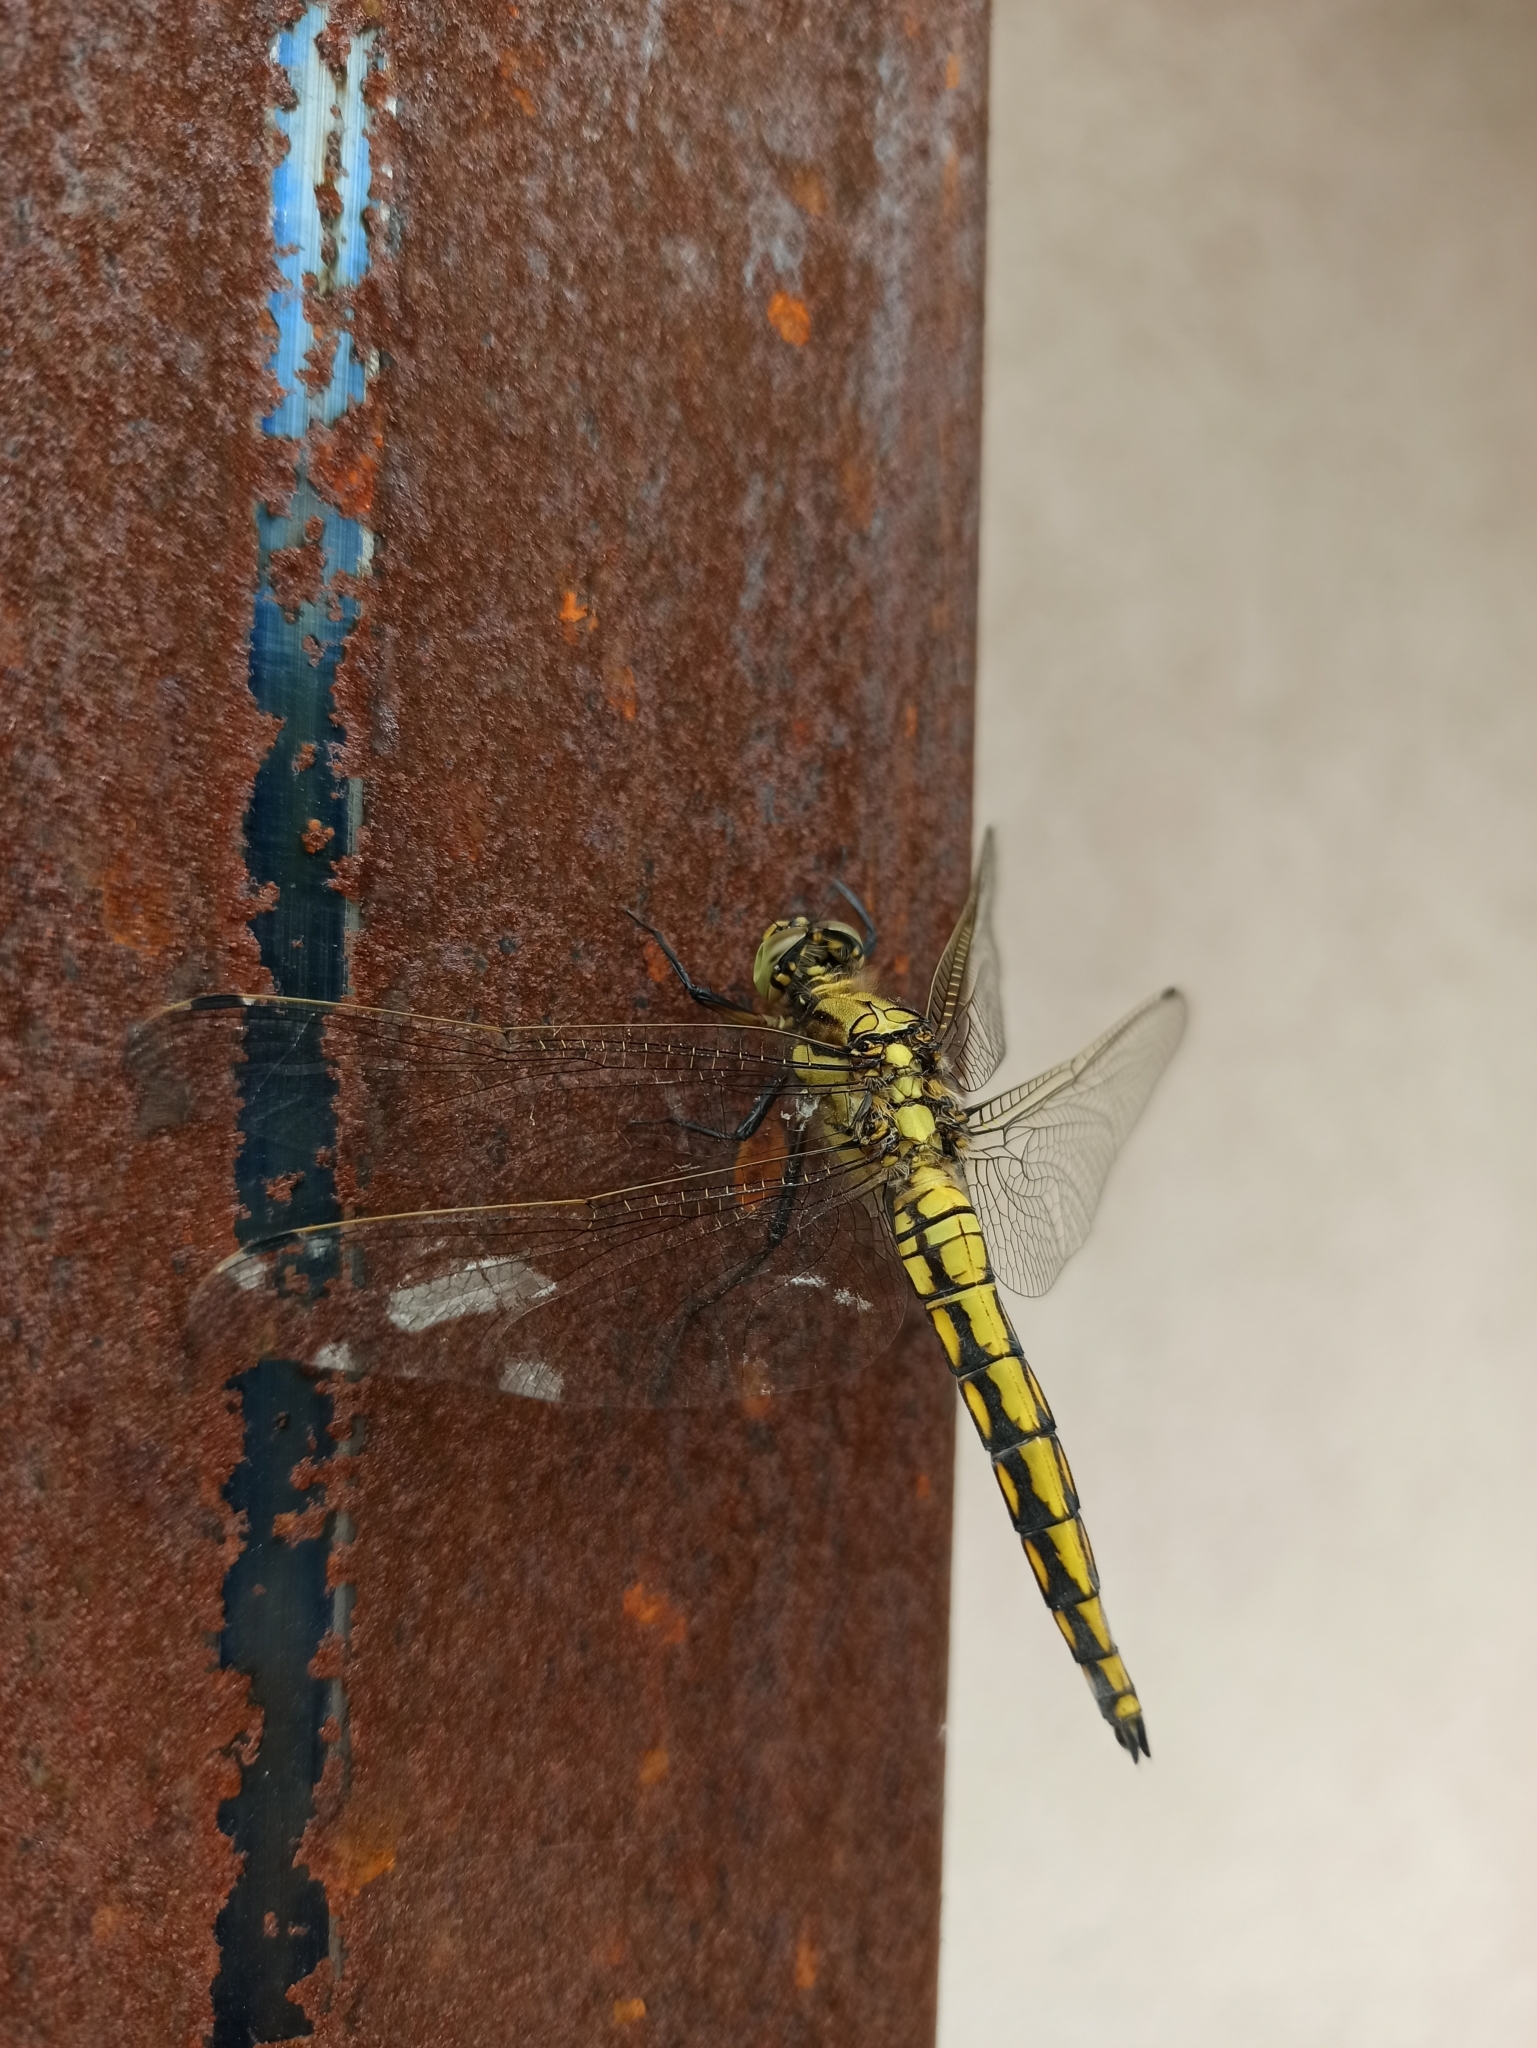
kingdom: Animalia
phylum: Arthropoda
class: Insecta
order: Odonata
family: Libellulidae
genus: Orthetrum
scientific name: Orthetrum cancellatum
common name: Black-tailed skimmer
